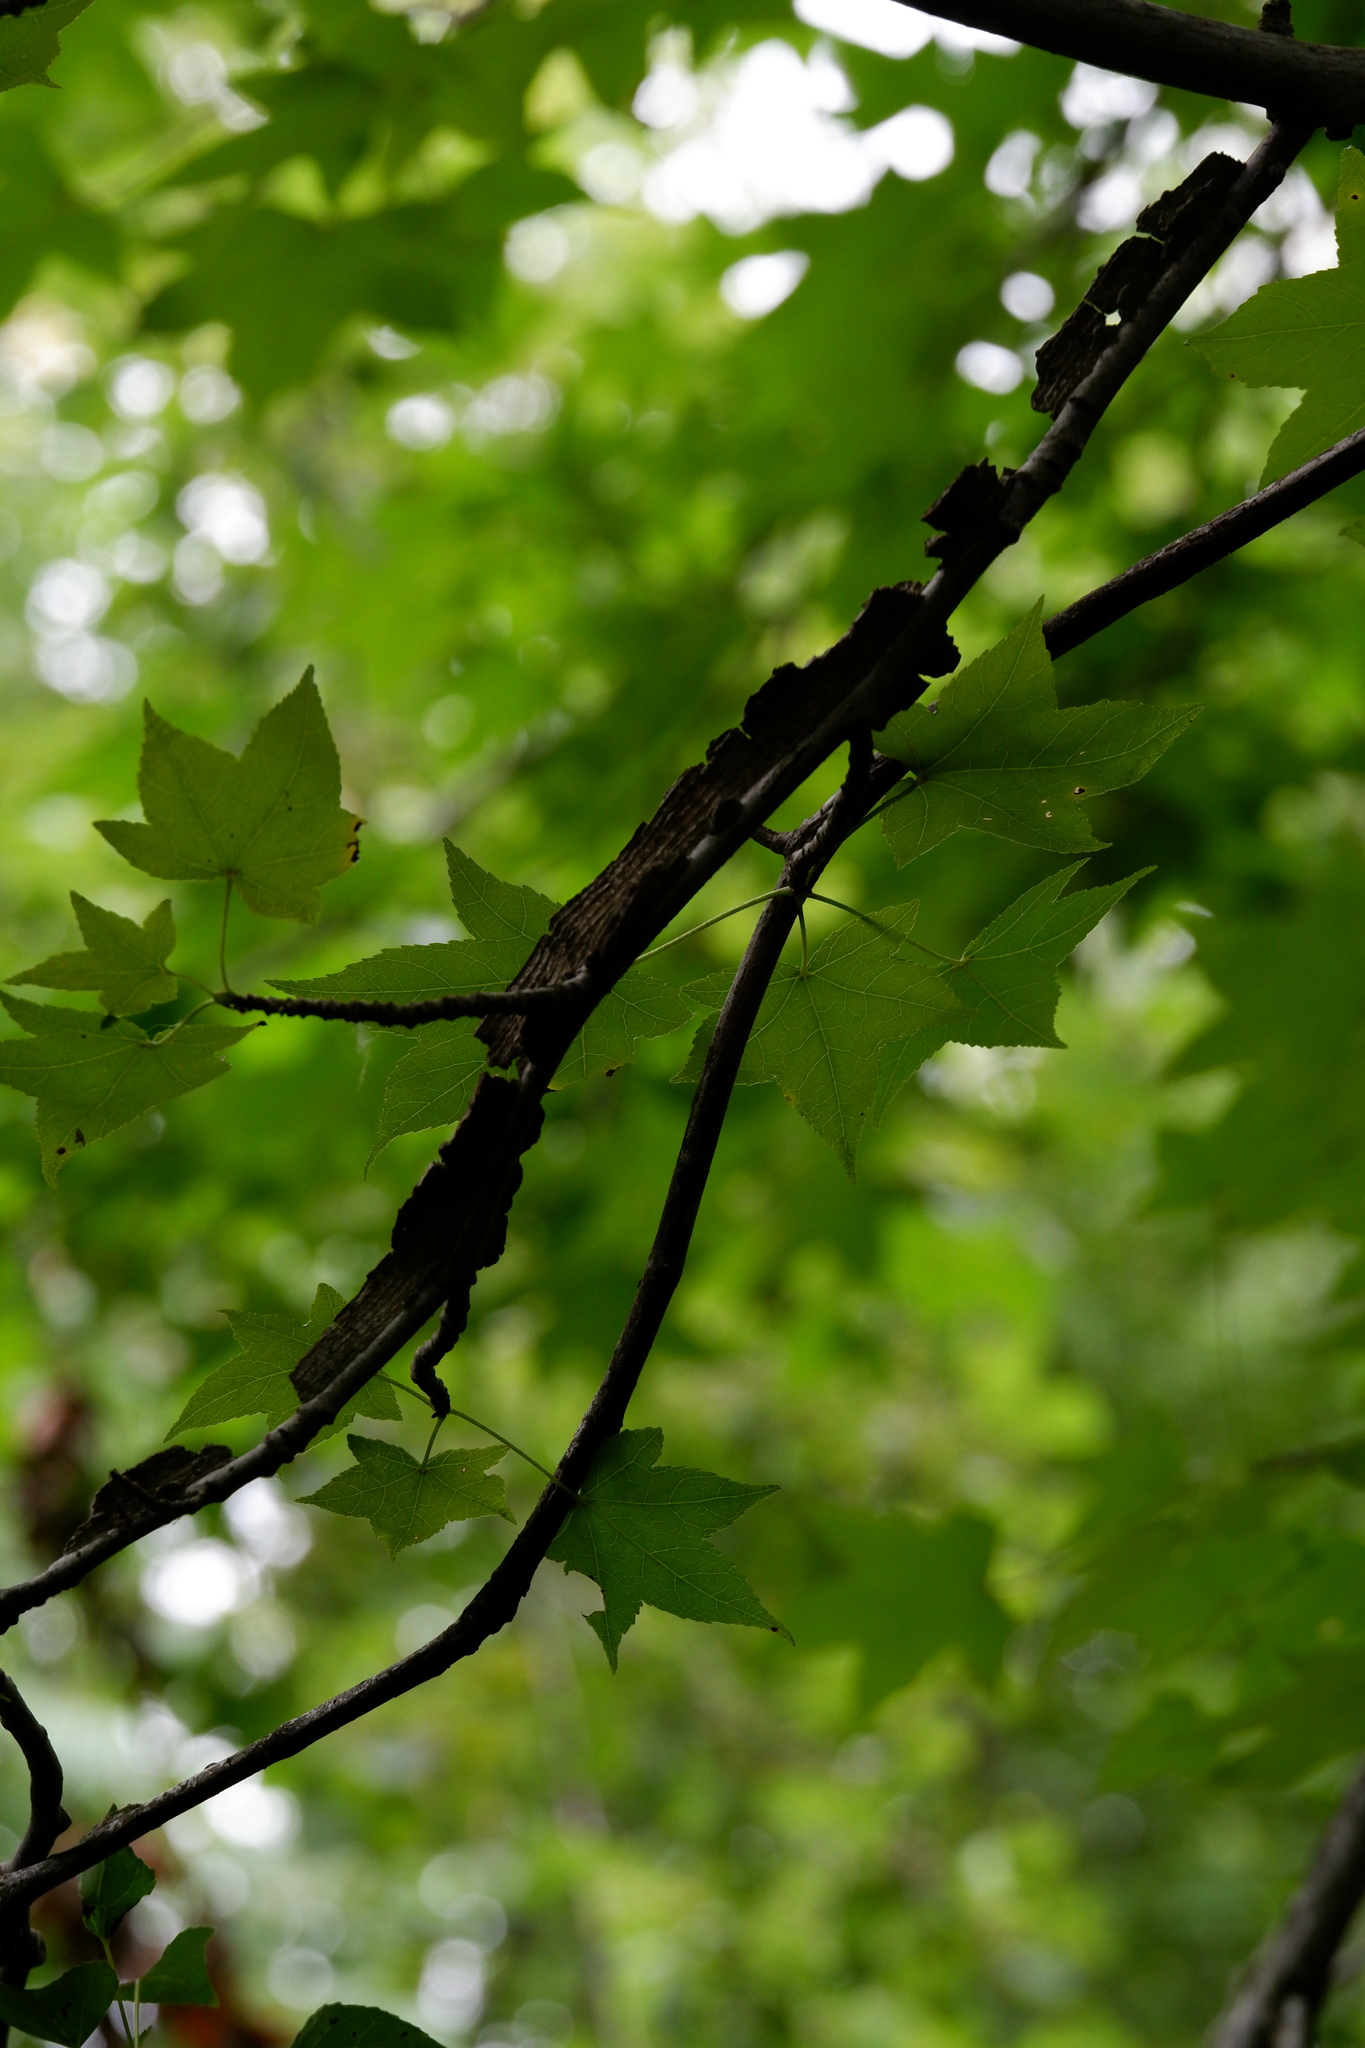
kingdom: Plantae
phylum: Tracheophyta
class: Magnoliopsida
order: Saxifragales
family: Altingiaceae
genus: Liquidambar
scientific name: Liquidambar styraciflua
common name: Sweet gum
